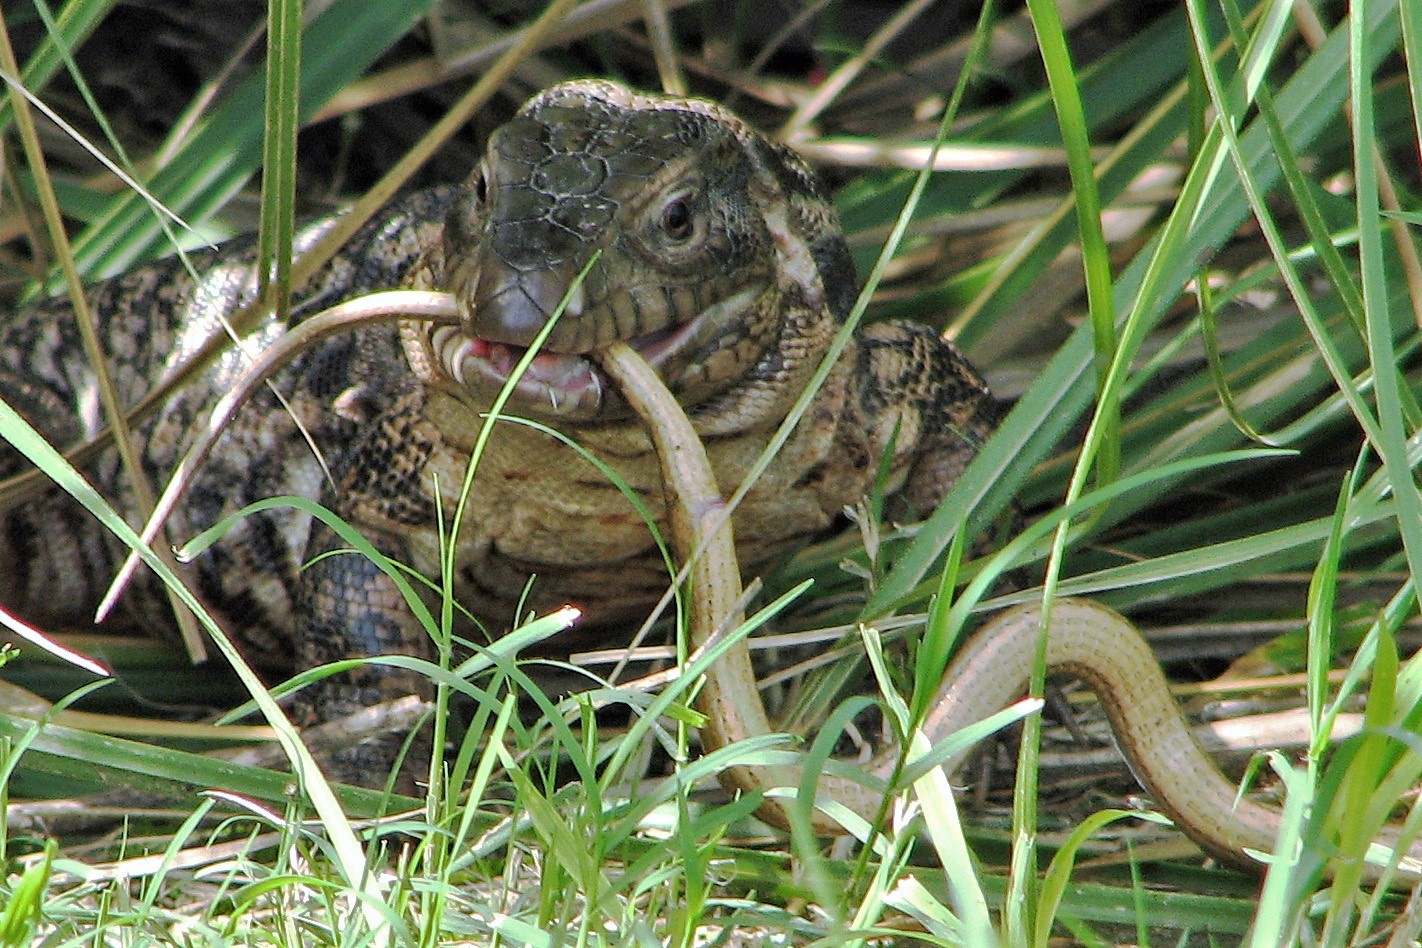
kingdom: Animalia
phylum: Chordata
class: Squamata
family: Teiidae
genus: Salvator
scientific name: Salvator merianae
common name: Argentine black and white tegu
